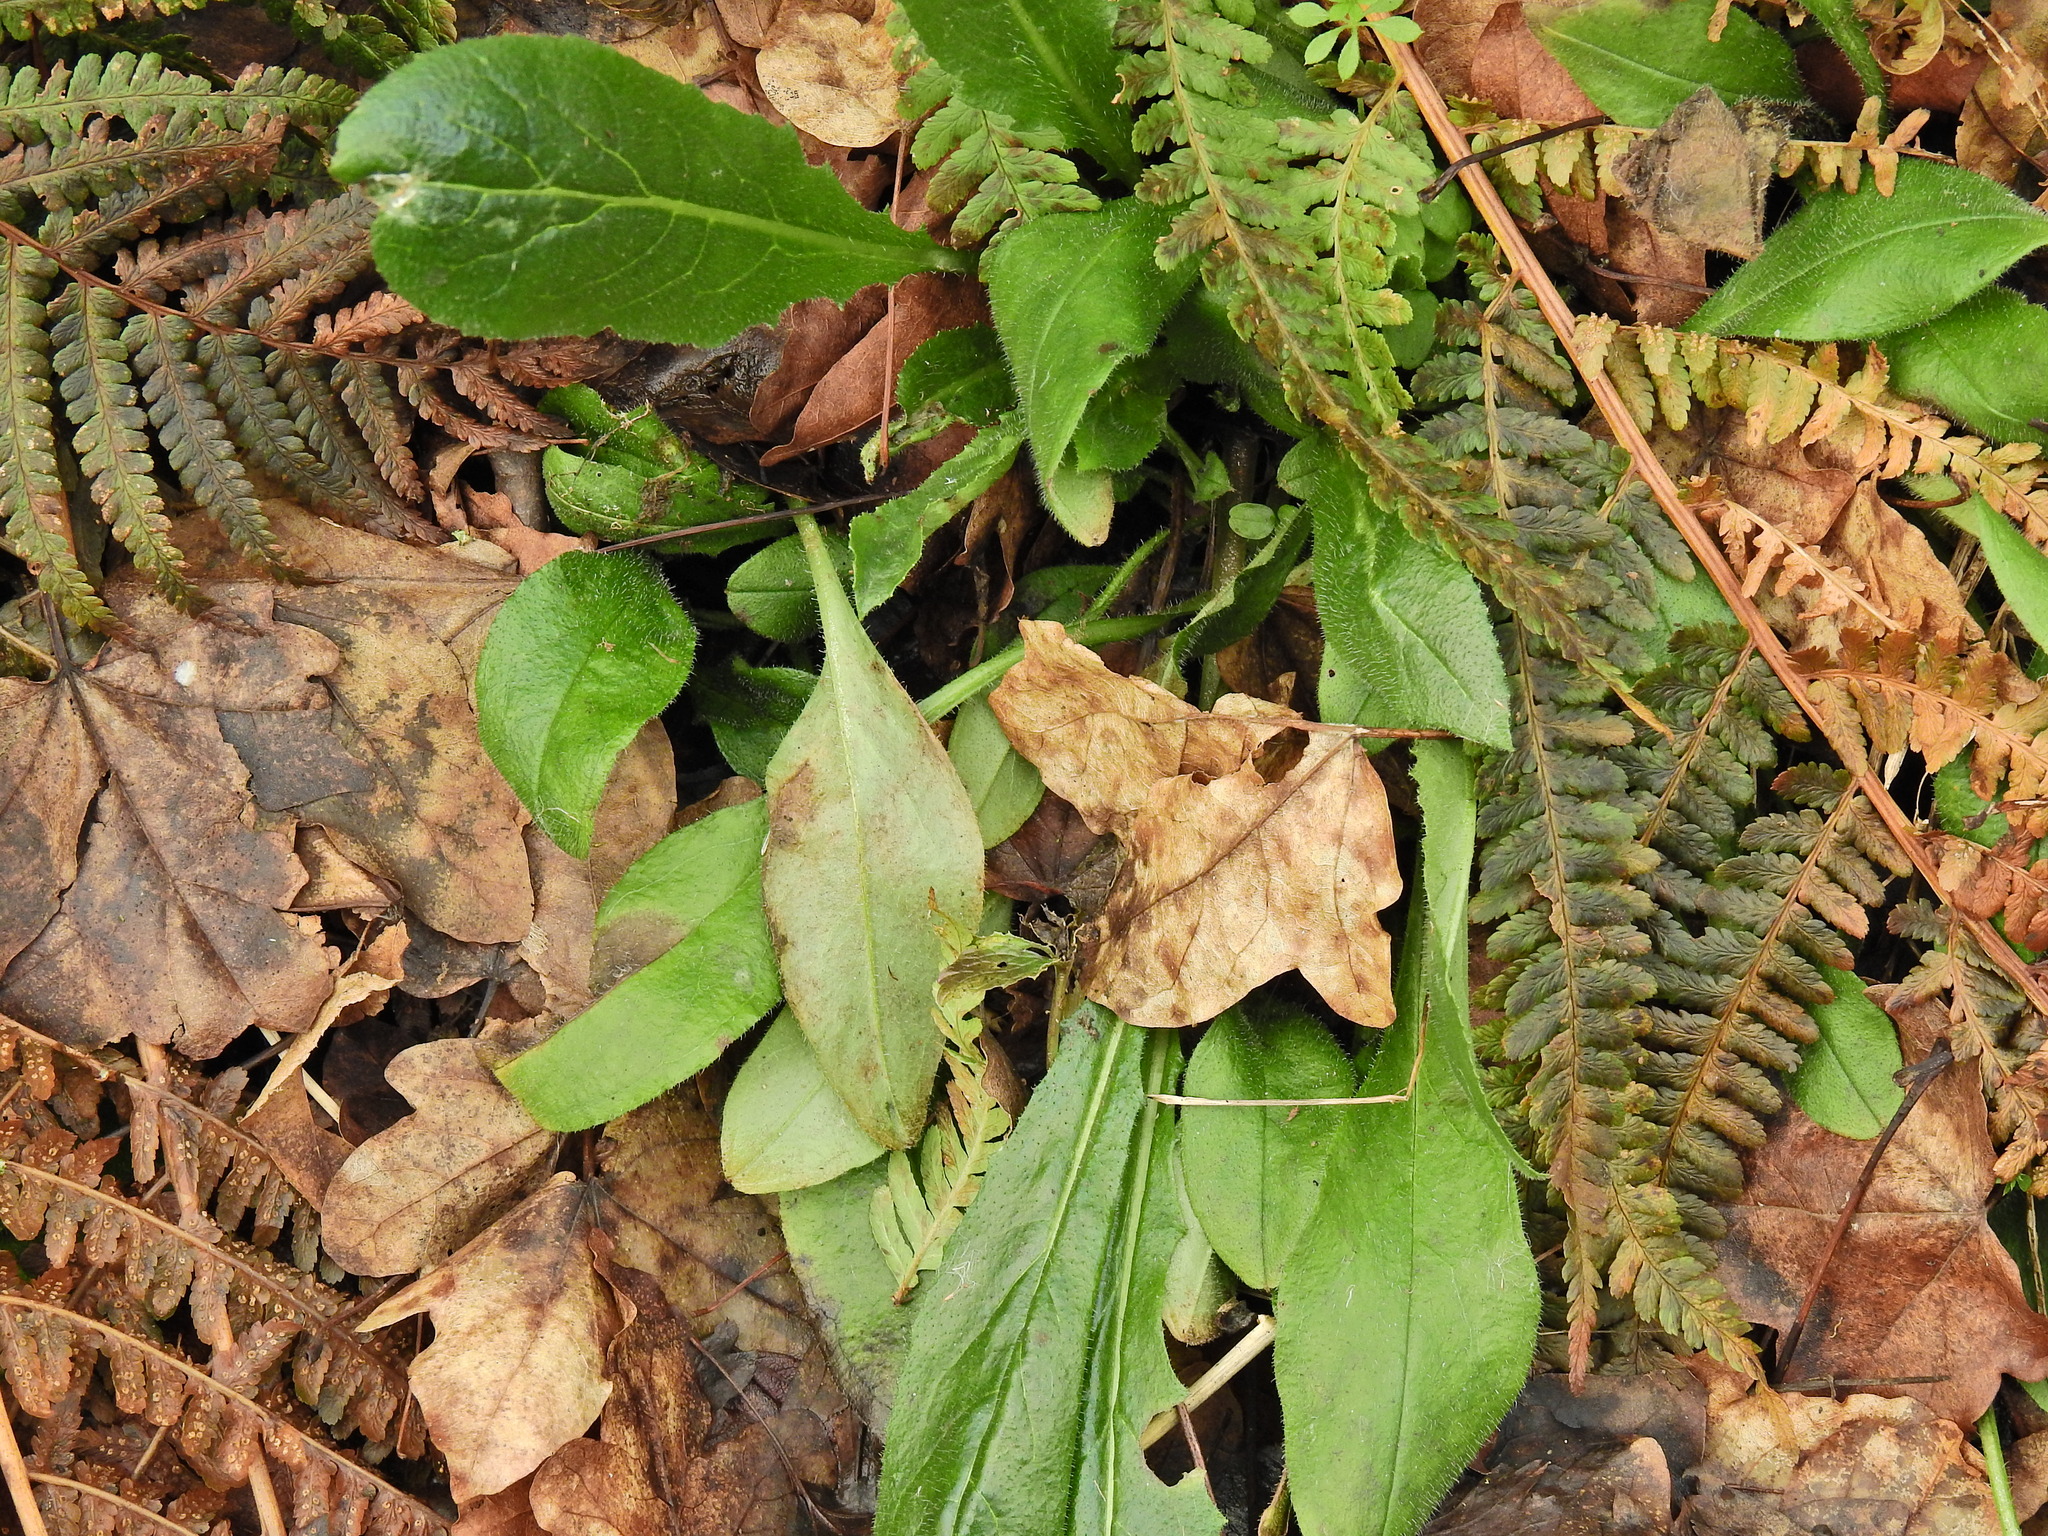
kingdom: Plantae
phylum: Tracheophyta
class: Magnoliopsida
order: Brassicales
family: Brassicaceae
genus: Hesperis
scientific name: Hesperis matronalis
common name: Dame's-violet
